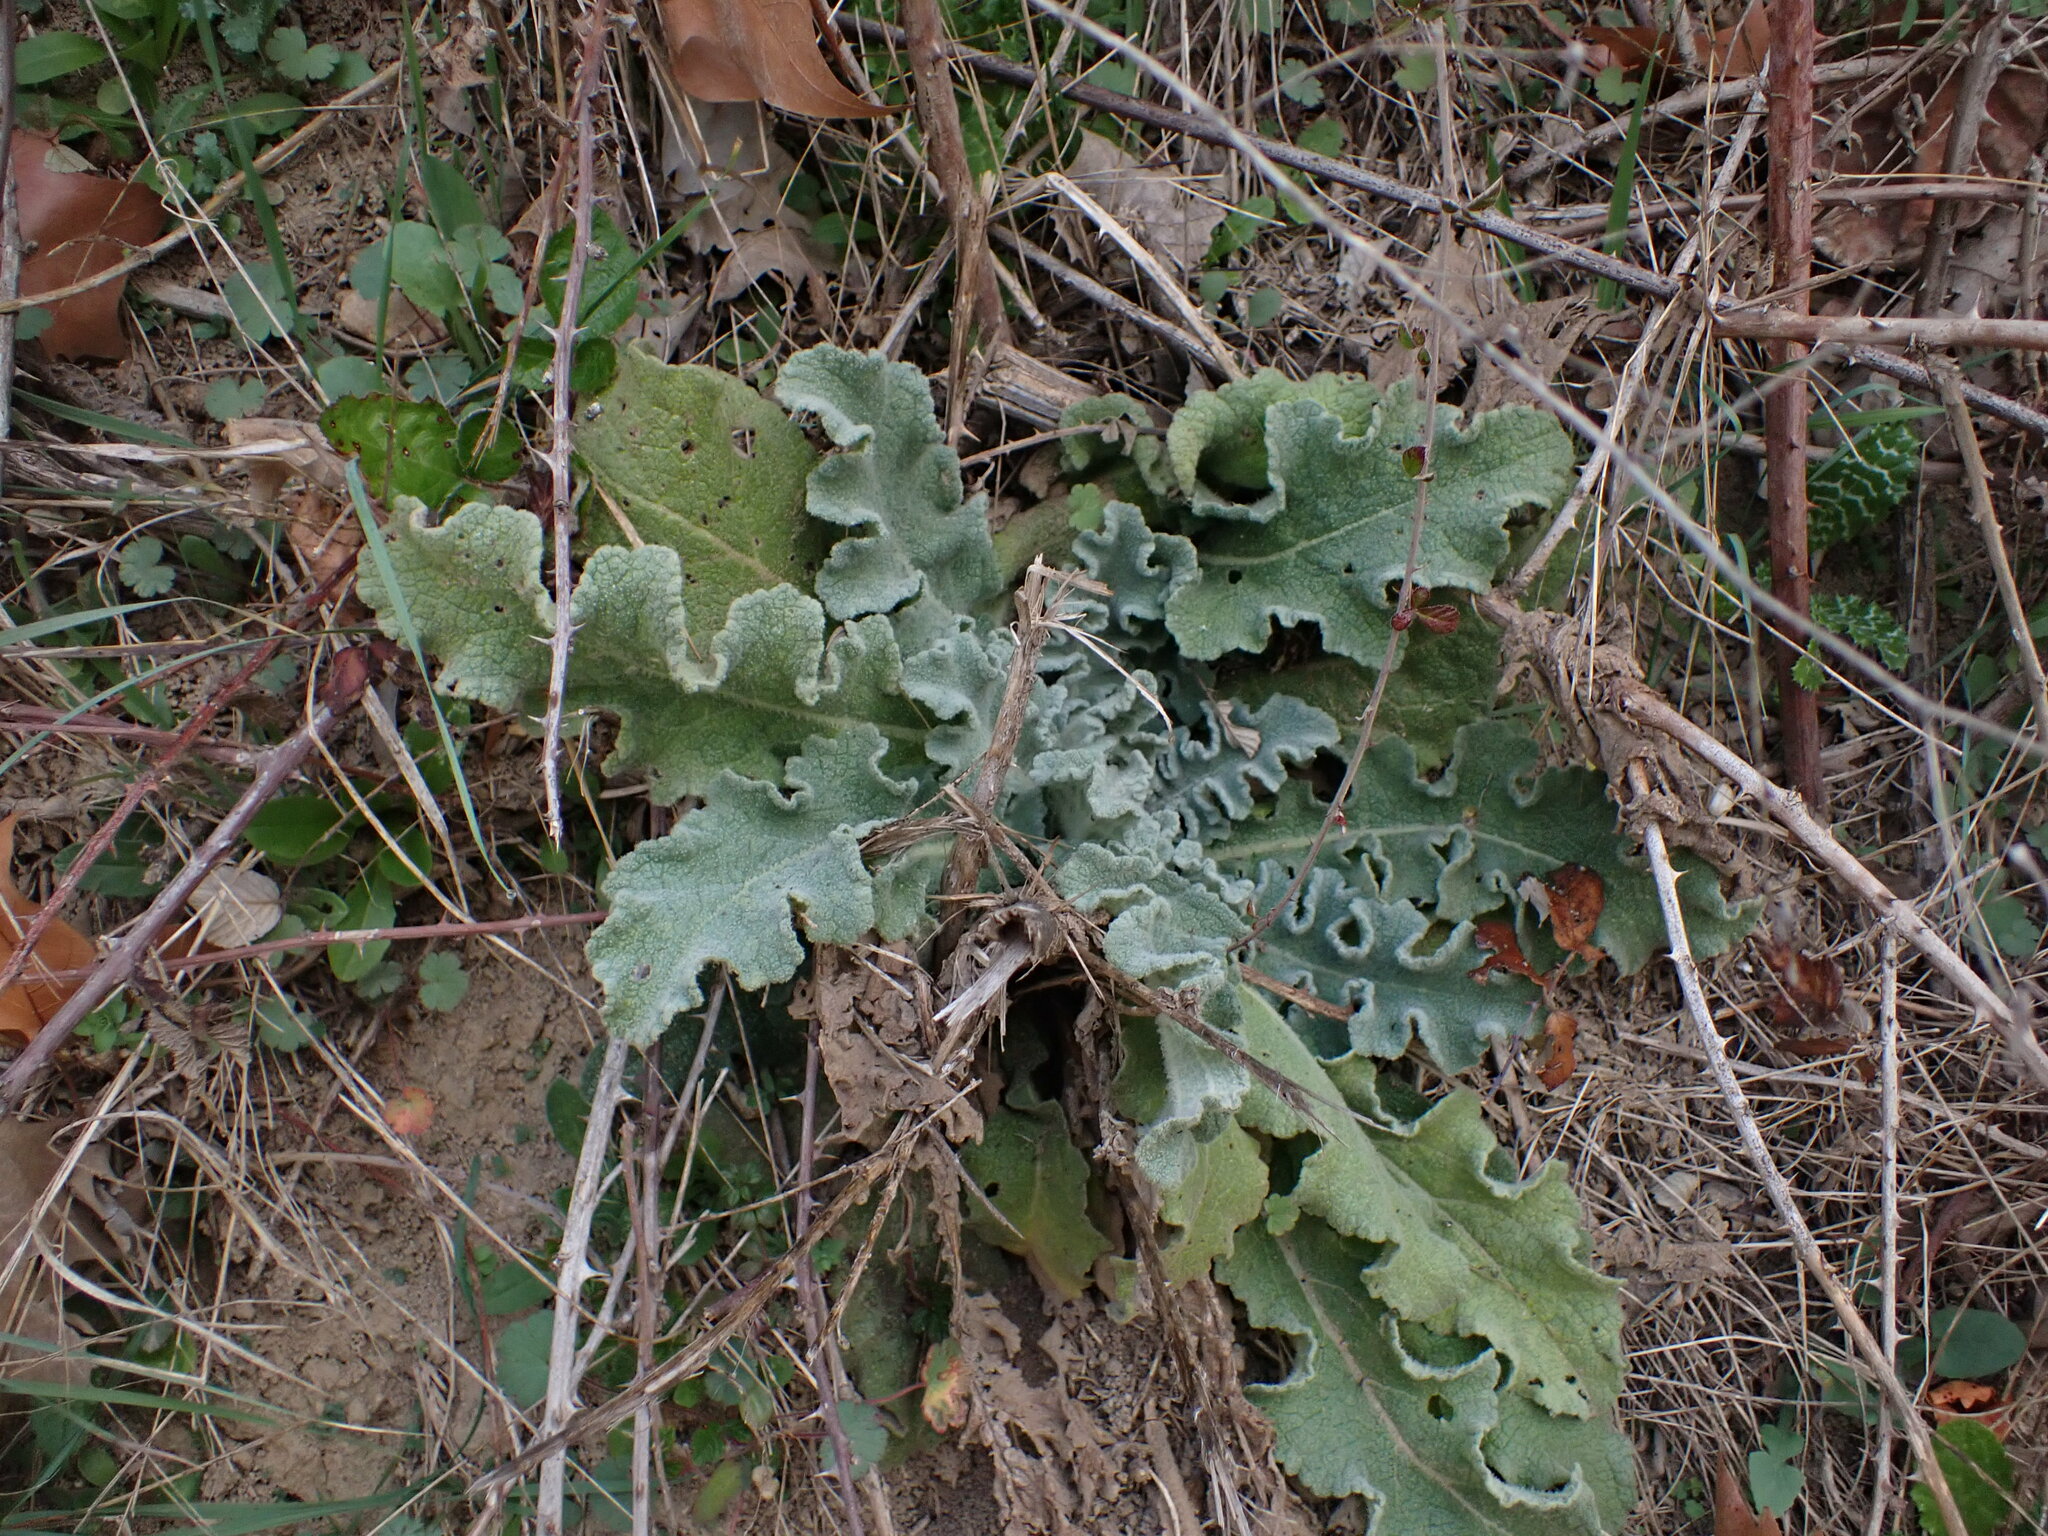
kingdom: Plantae
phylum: Tracheophyta
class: Magnoliopsida
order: Lamiales
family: Scrophulariaceae
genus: Verbascum
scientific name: Verbascum sinuatum
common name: Wavyleaf mullein
